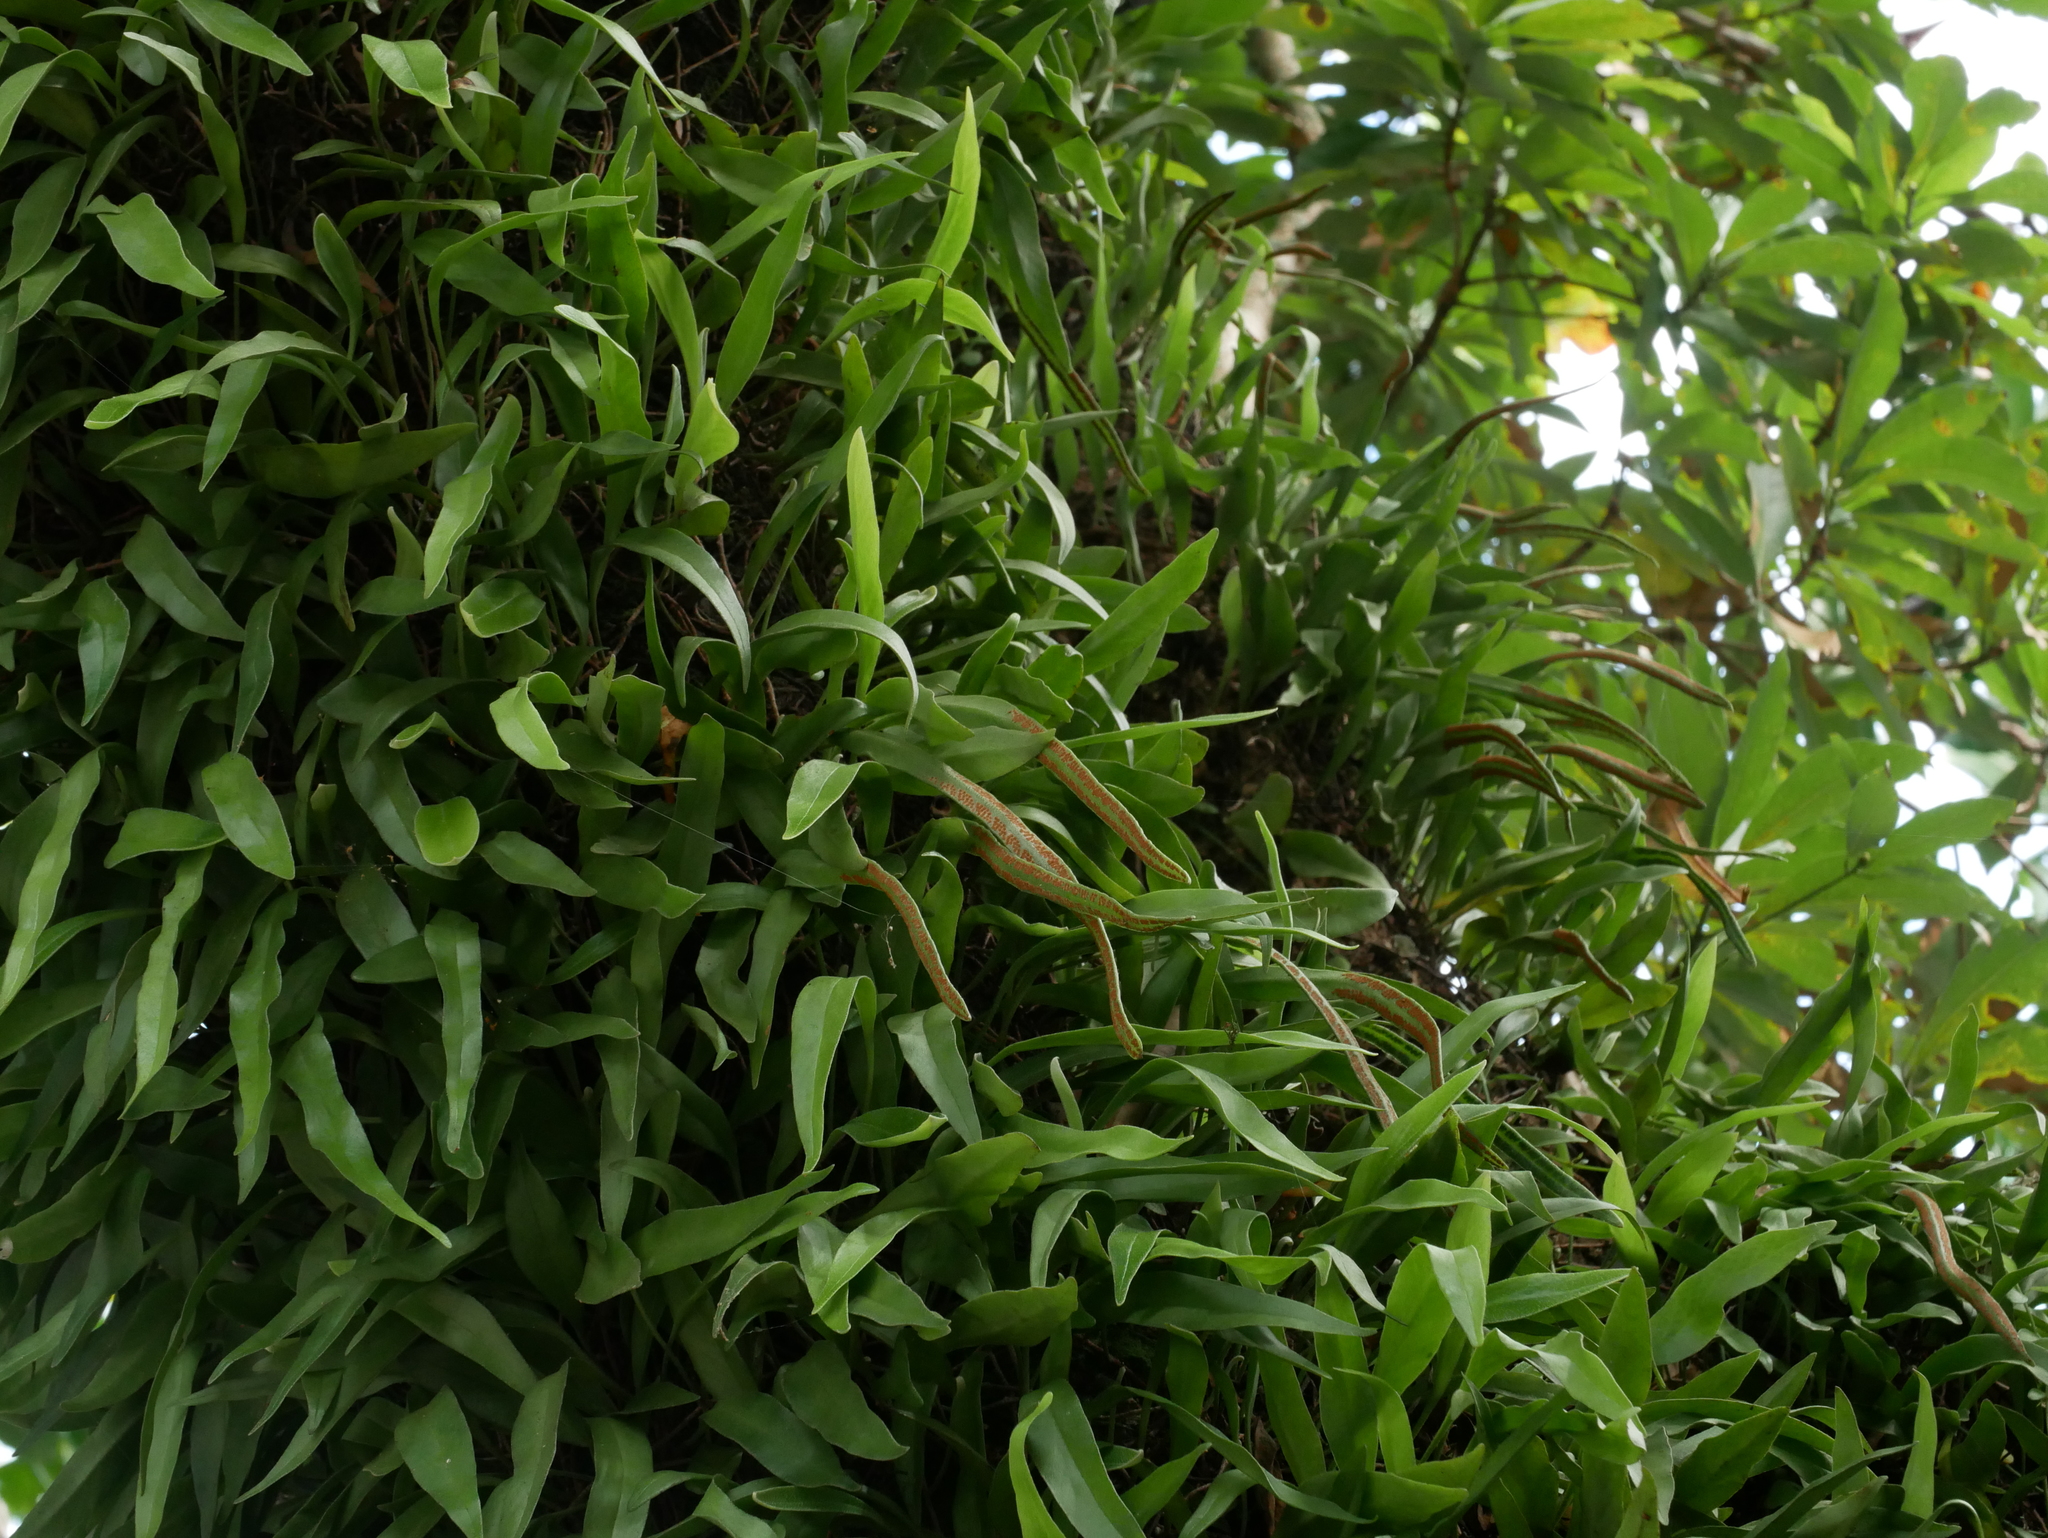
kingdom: Plantae
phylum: Tracheophyta
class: Polypodiopsida
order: Polypodiales
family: Polypodiaceae
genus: Pyrrosia
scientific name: Pyrrosia lanceolata
